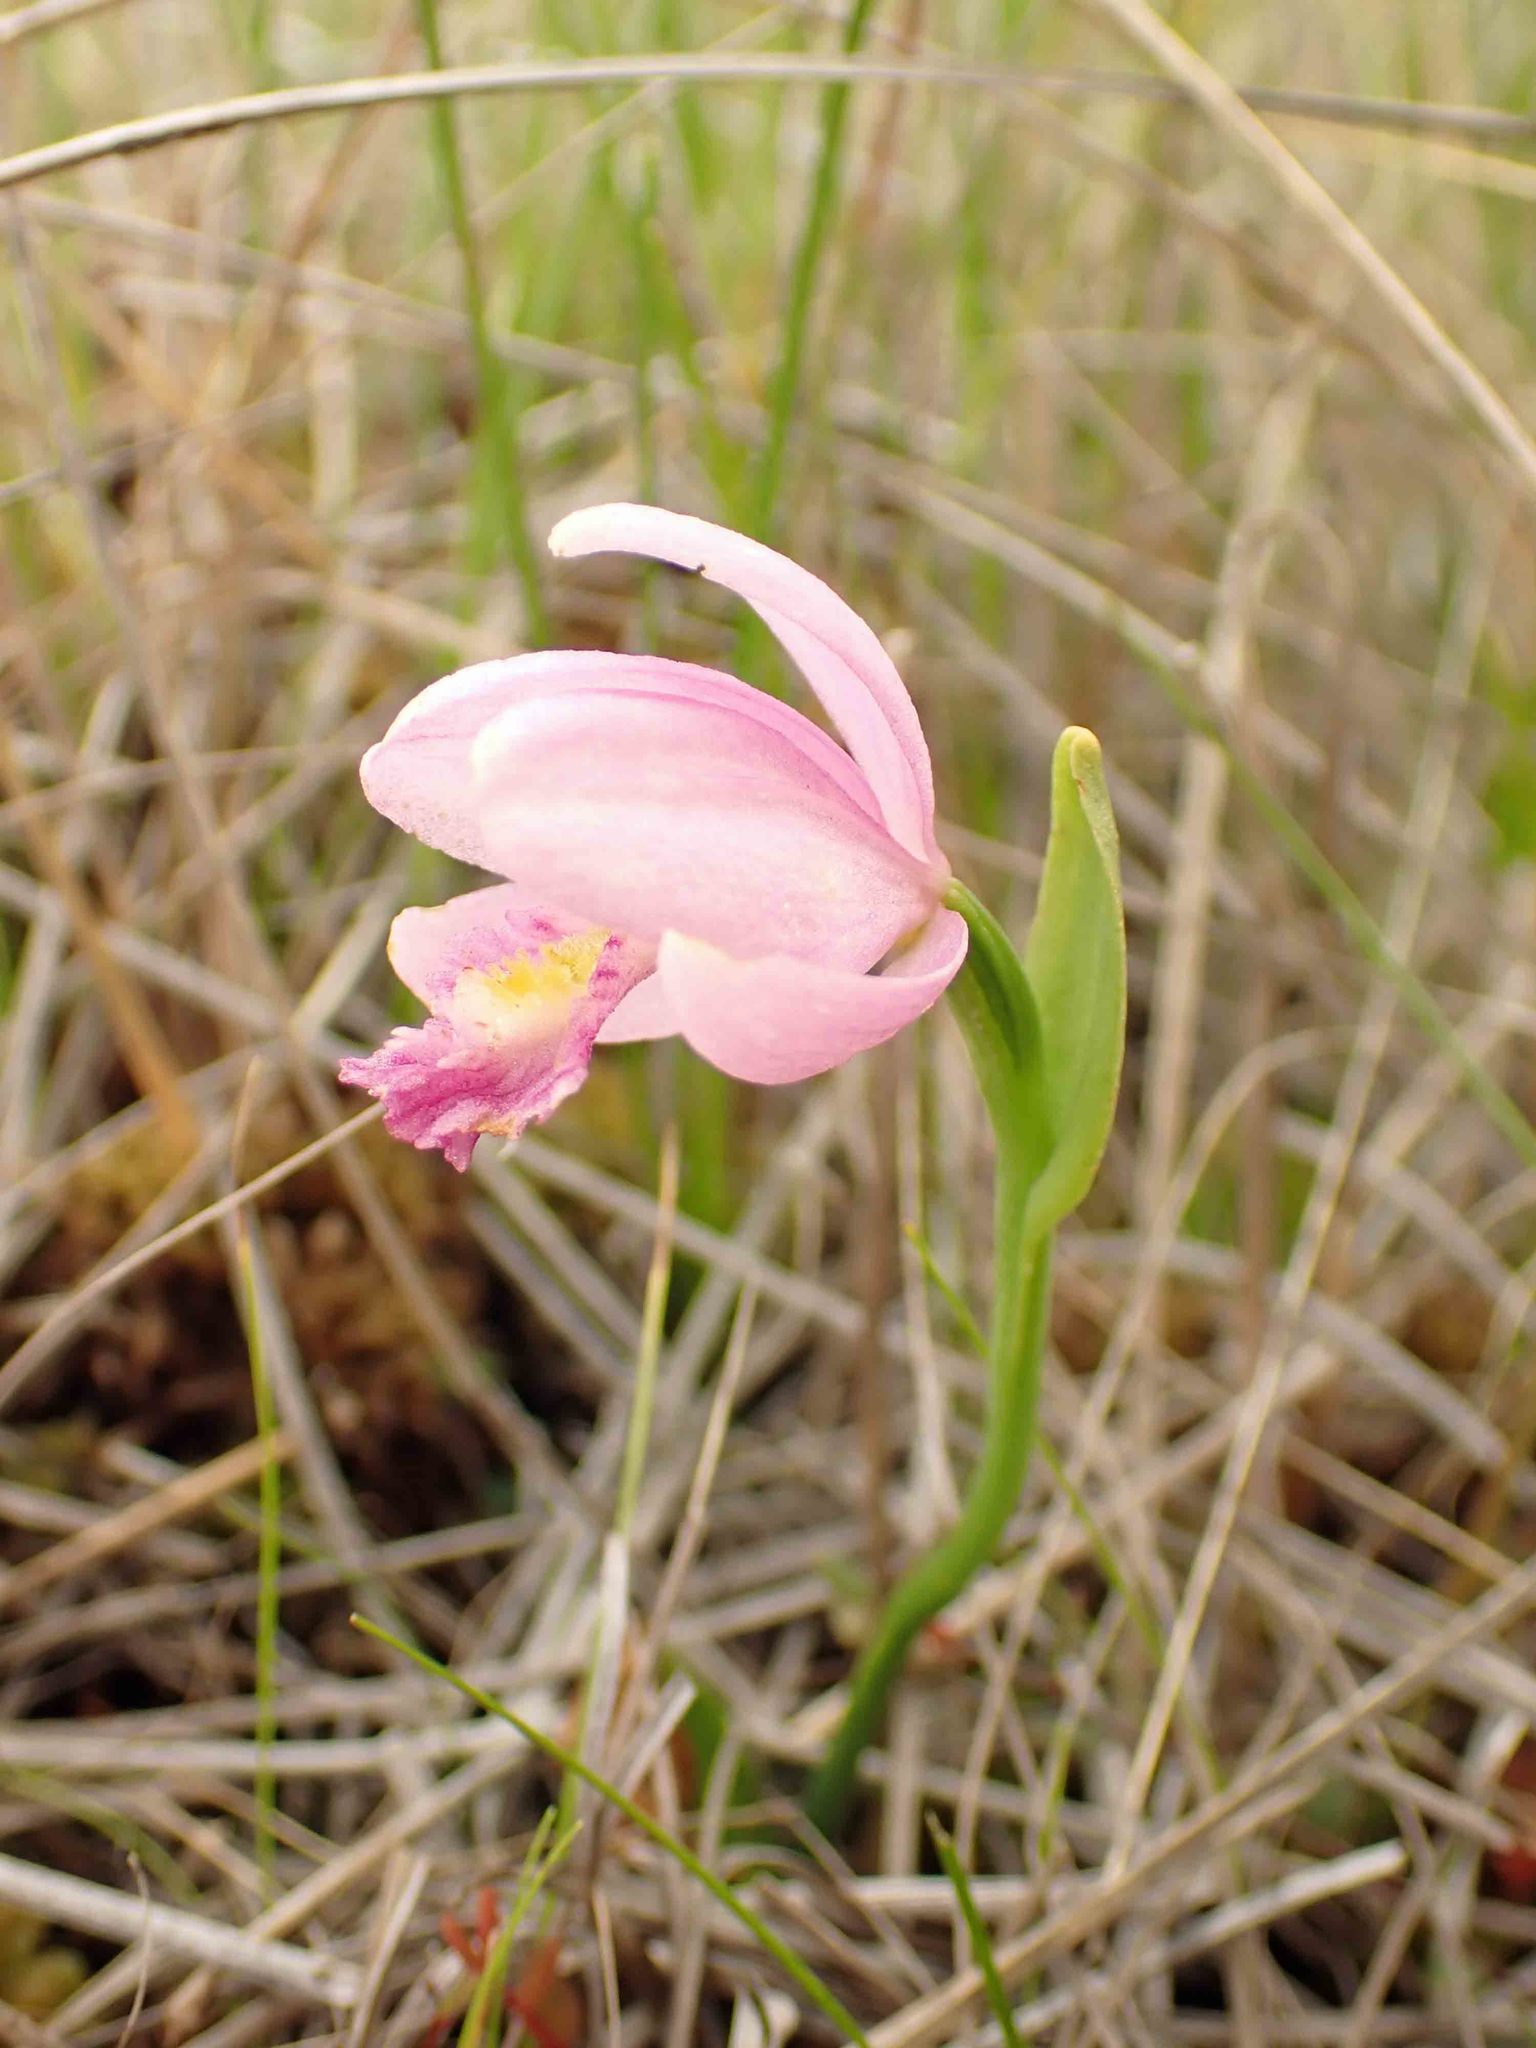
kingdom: Plantae
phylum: Tracheophyta
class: Liliopsida
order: Asparagales
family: Orchidaceae
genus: Pogonia
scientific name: Pogonia ophioglossoides
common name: Rose pogonia
